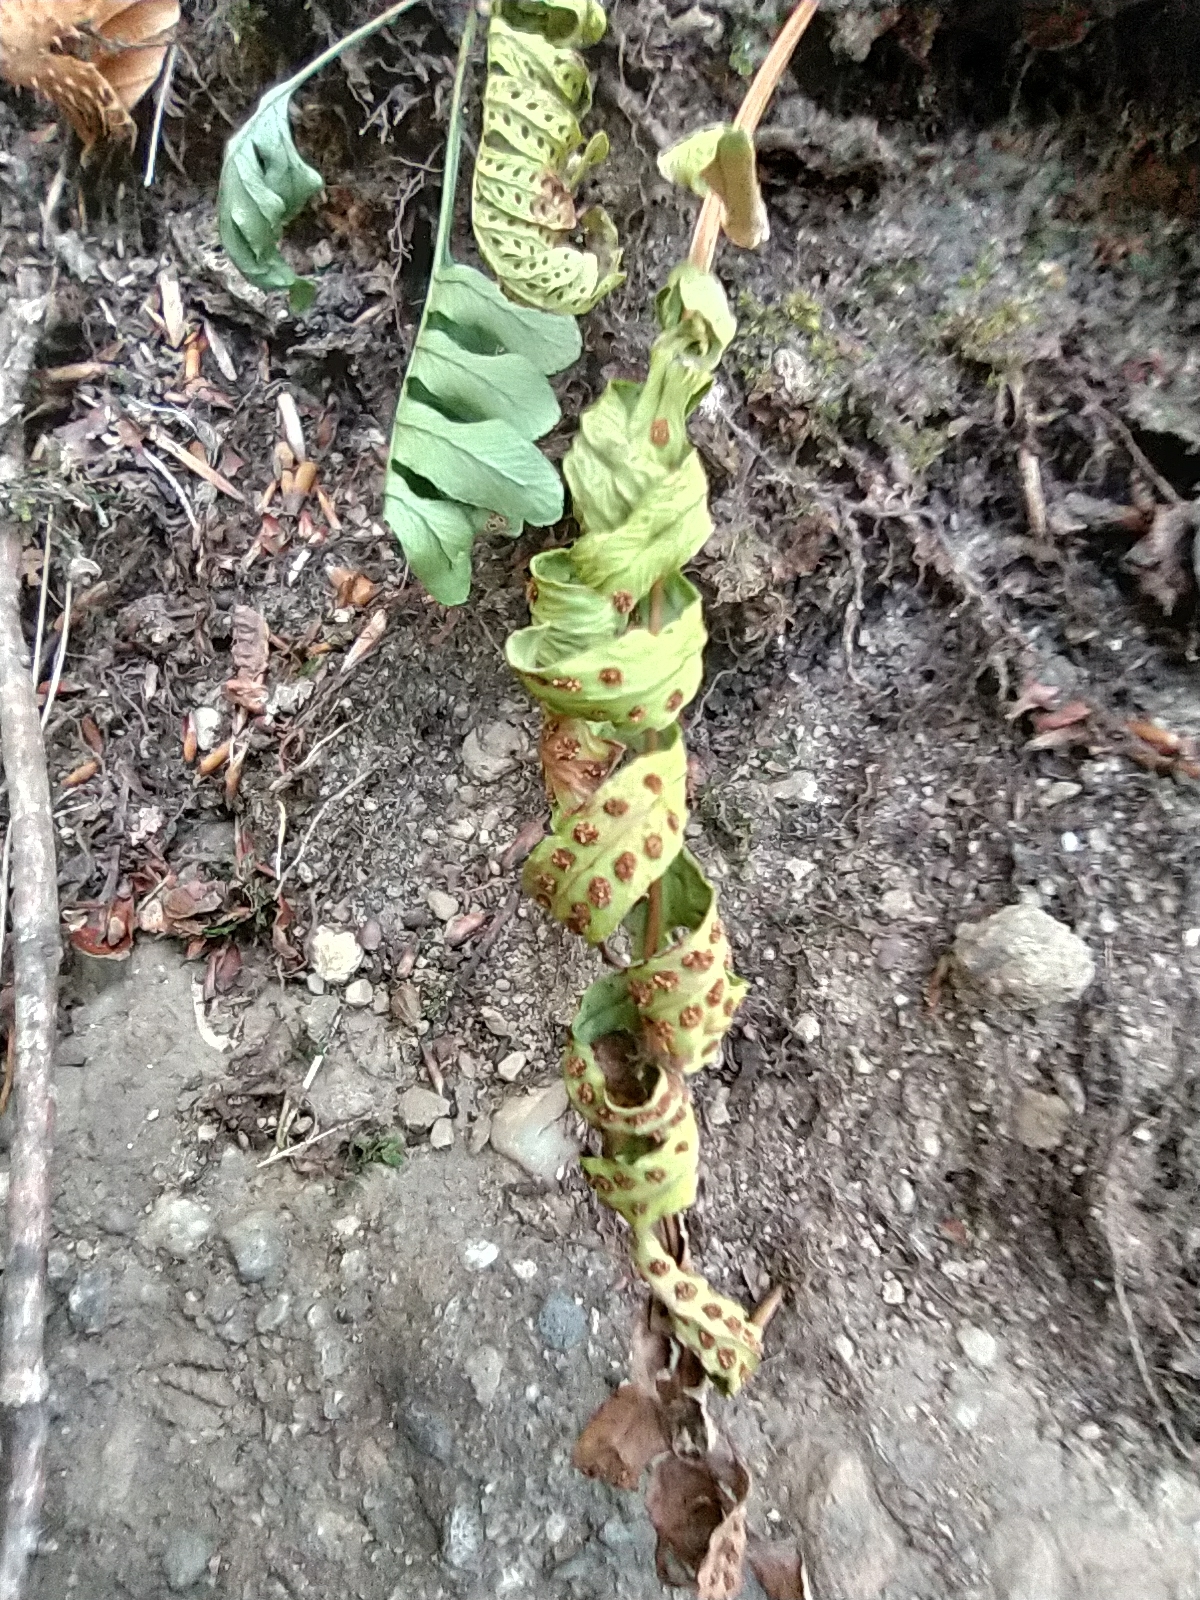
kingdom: Plantae
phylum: Tracheophyta
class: Polypodiopsida
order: Polypodiales
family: Polypodiaceae
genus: Polypodium
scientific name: Polypodium vulgare
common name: Common polypody
